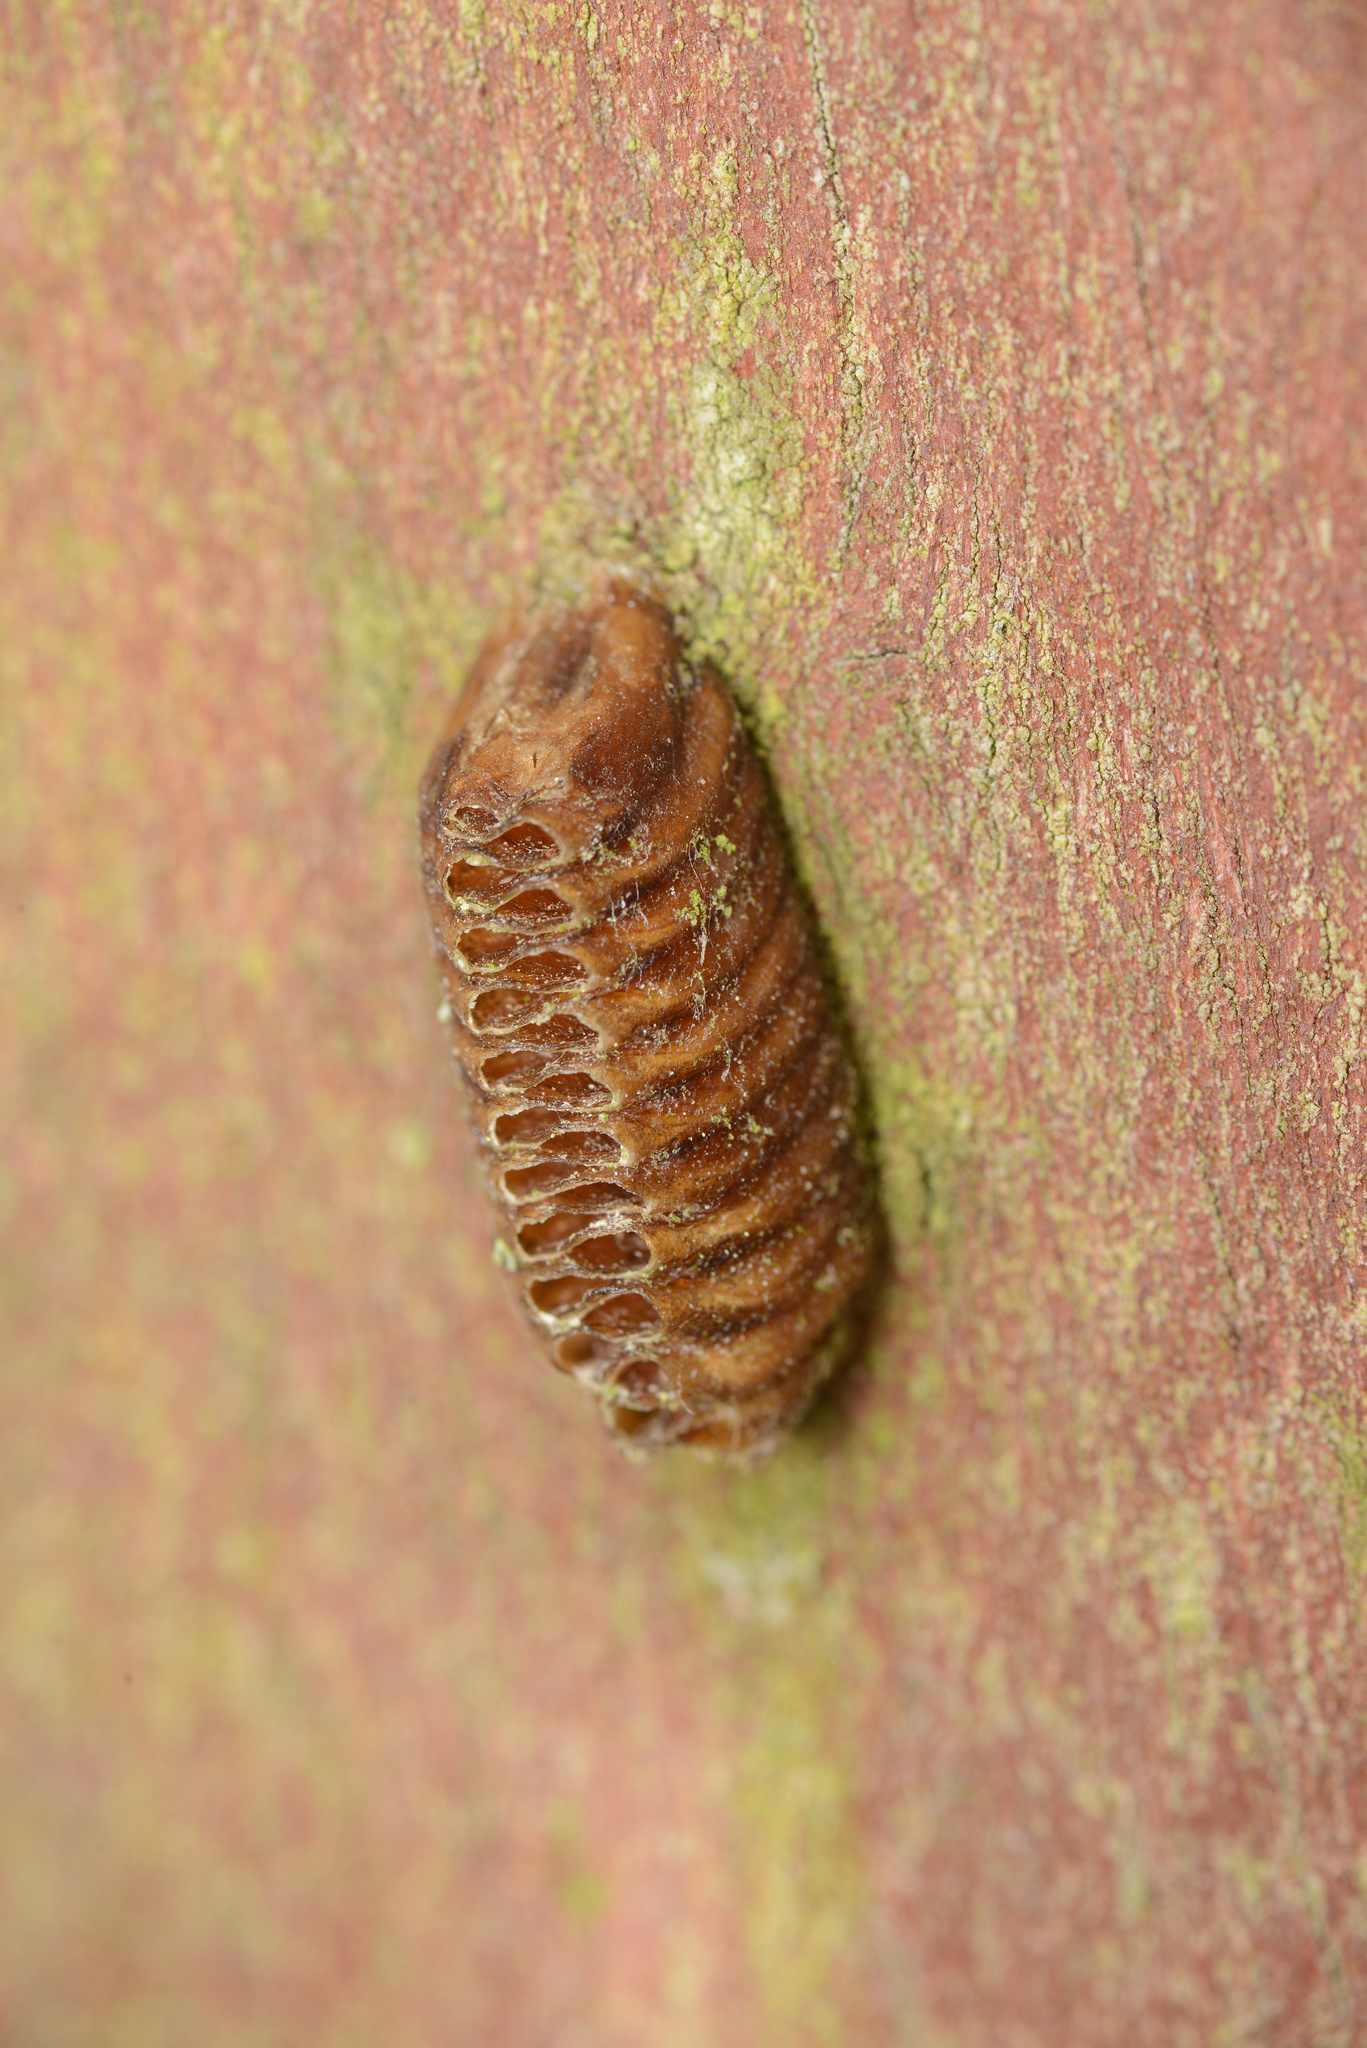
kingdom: Animalia
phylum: Arthropoda
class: Insecta
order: Mantodea
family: Mantidae
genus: Orthodera
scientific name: Orthodera novaezealandiae
